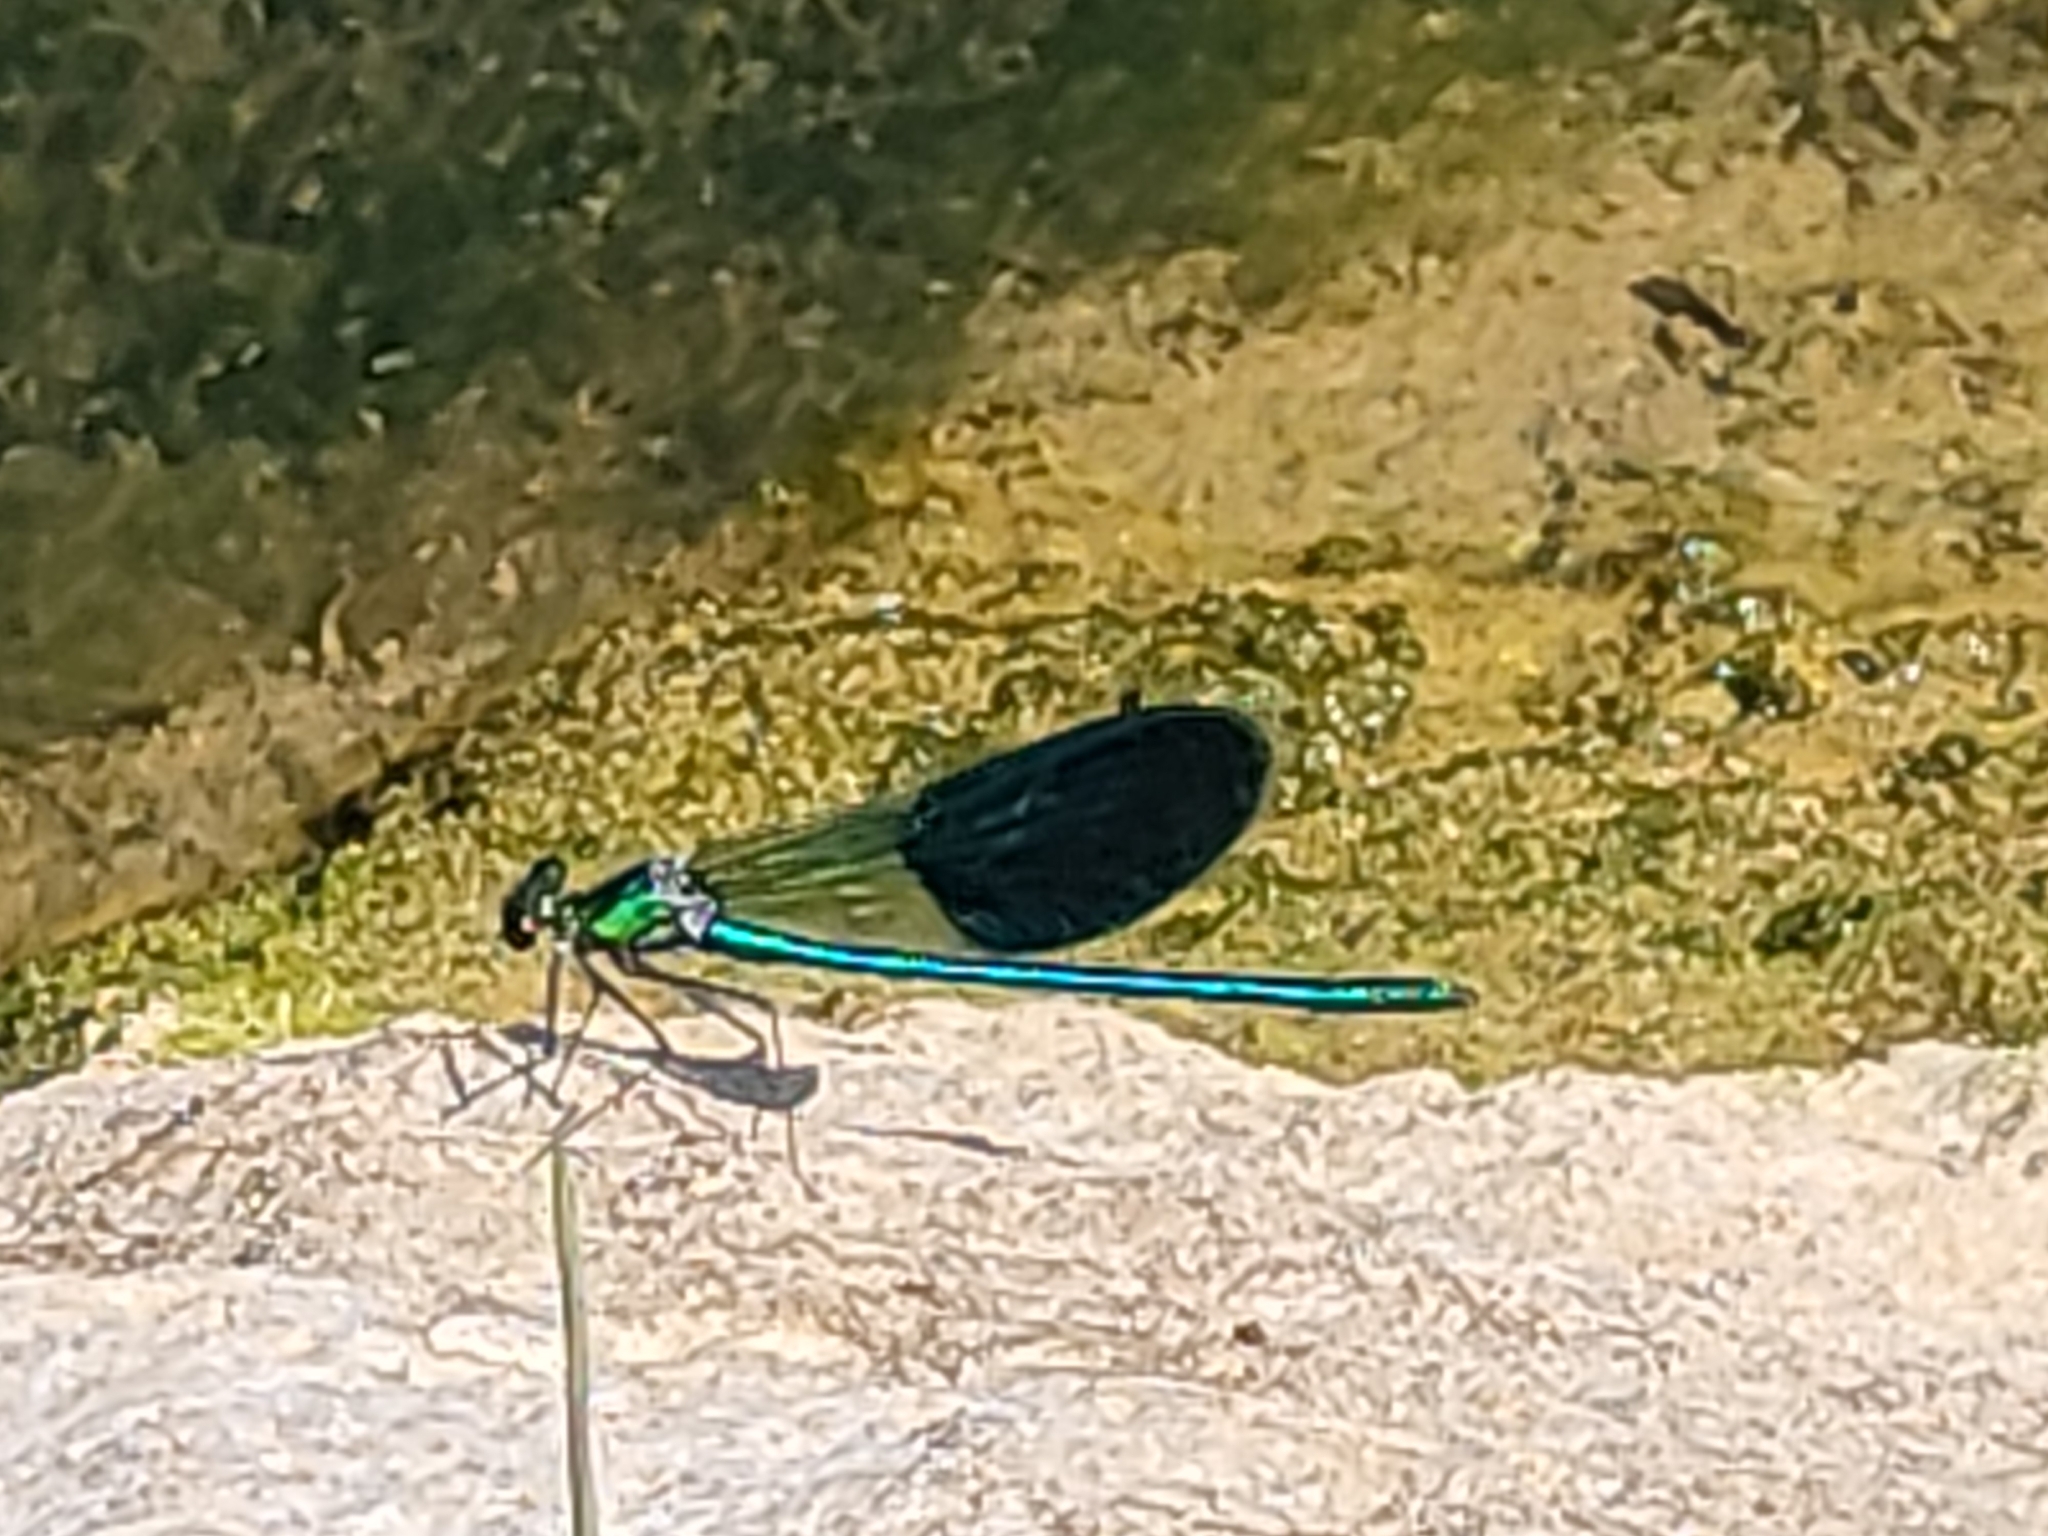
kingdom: Animalia
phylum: Arthropoda
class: Insecta
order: Odonata
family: Calopterygidae
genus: Calopteryx
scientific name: Calopteryx xanthostoma
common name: Western demoiselle
